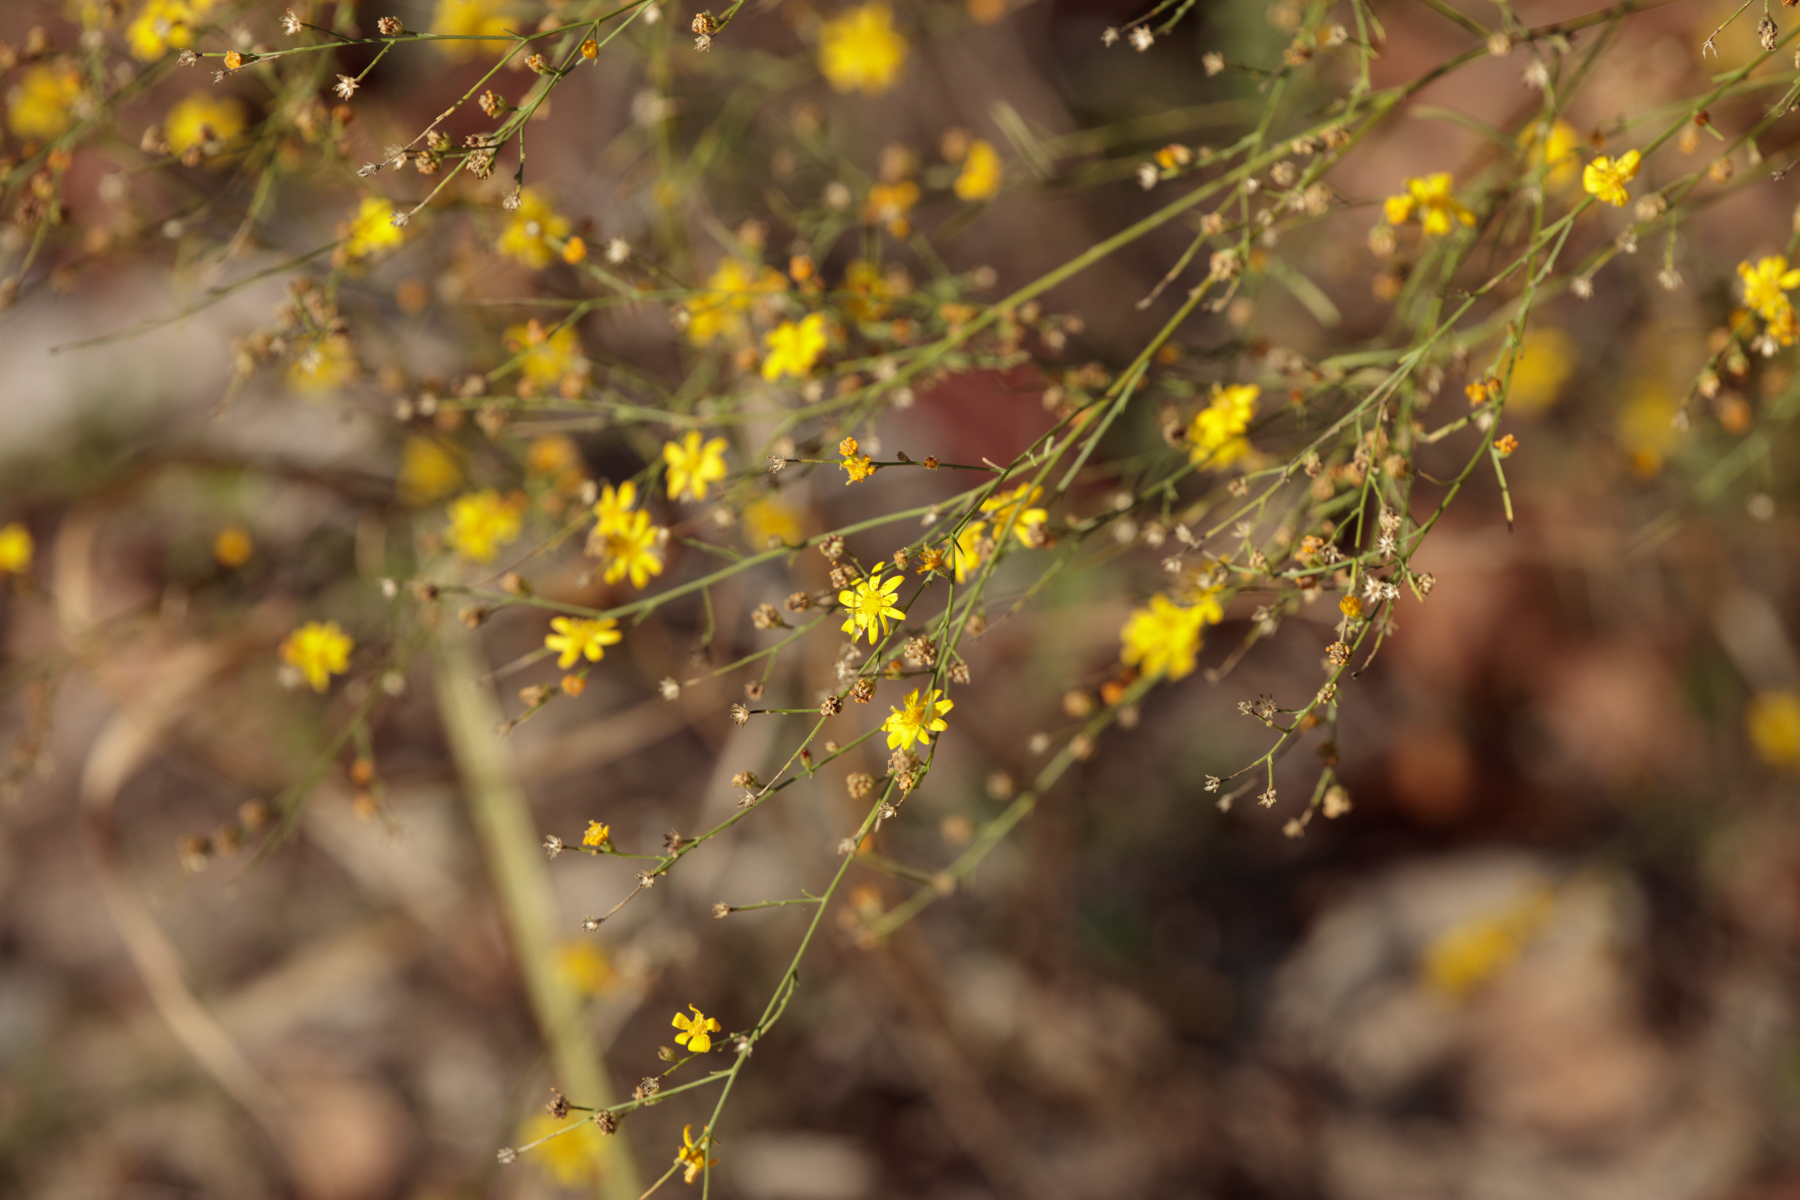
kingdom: Plantae
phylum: Tracheophyta
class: Magnoliopsida
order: Asterales
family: Asteraceae
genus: Gutierrezia
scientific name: Gutierrezia texana
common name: Texas snakeweed
